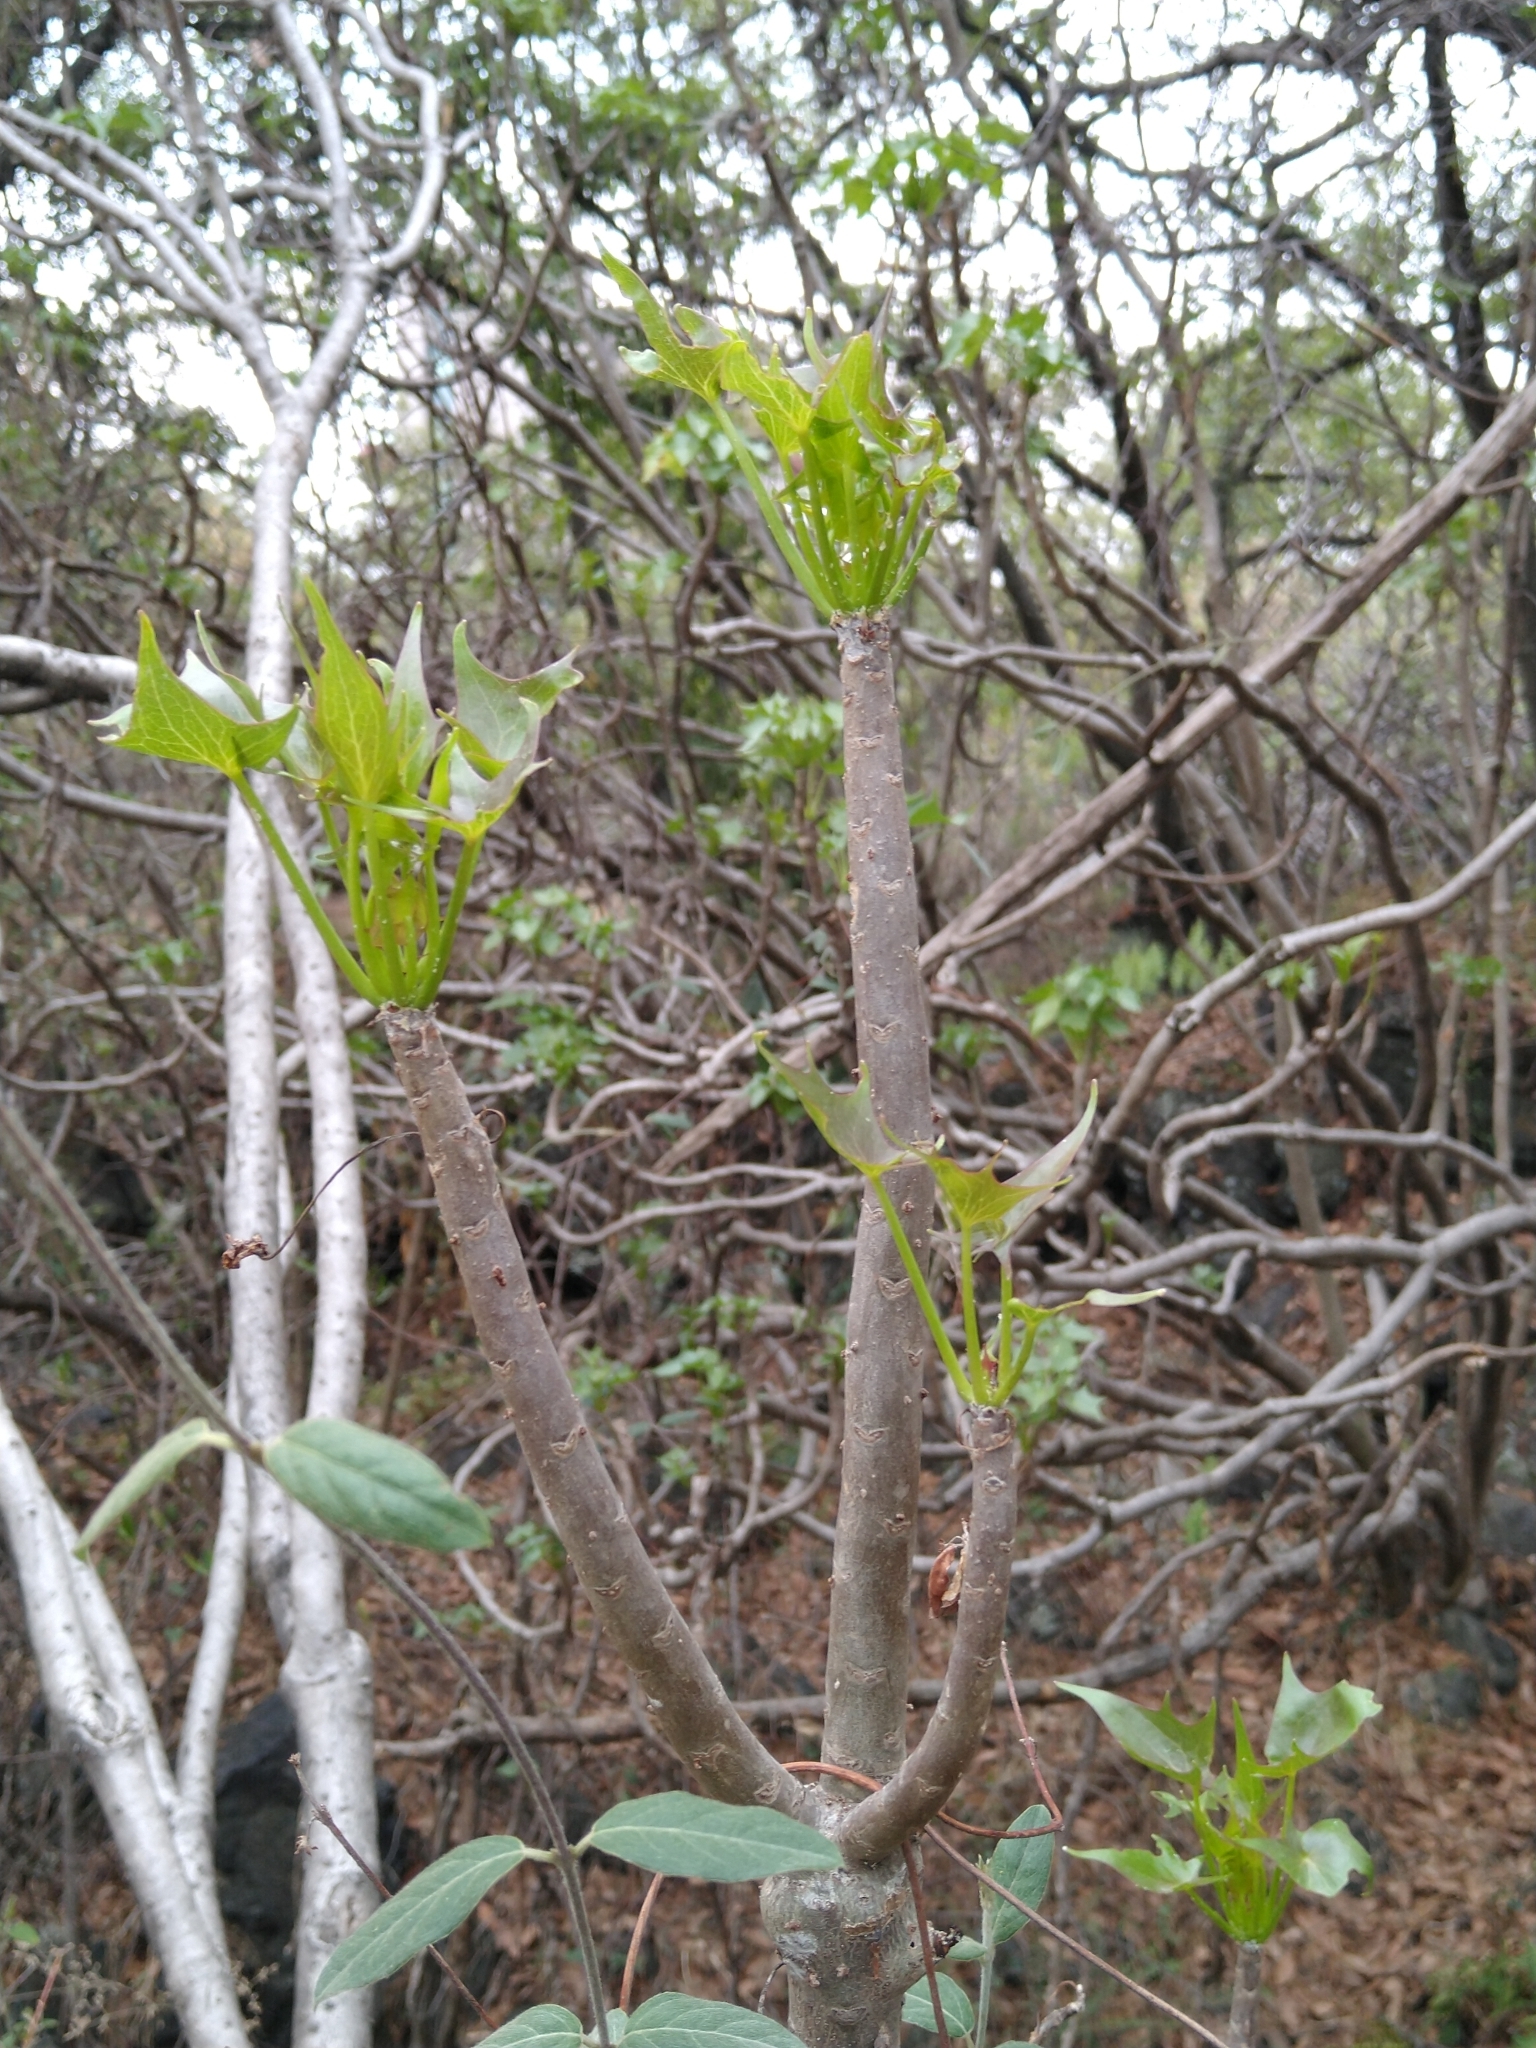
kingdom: Plantae
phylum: Tracheophyta
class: Magnoliopsida
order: Asterales
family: Asteraceae
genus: Pittocaulon
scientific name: Pittocaulon praecox
